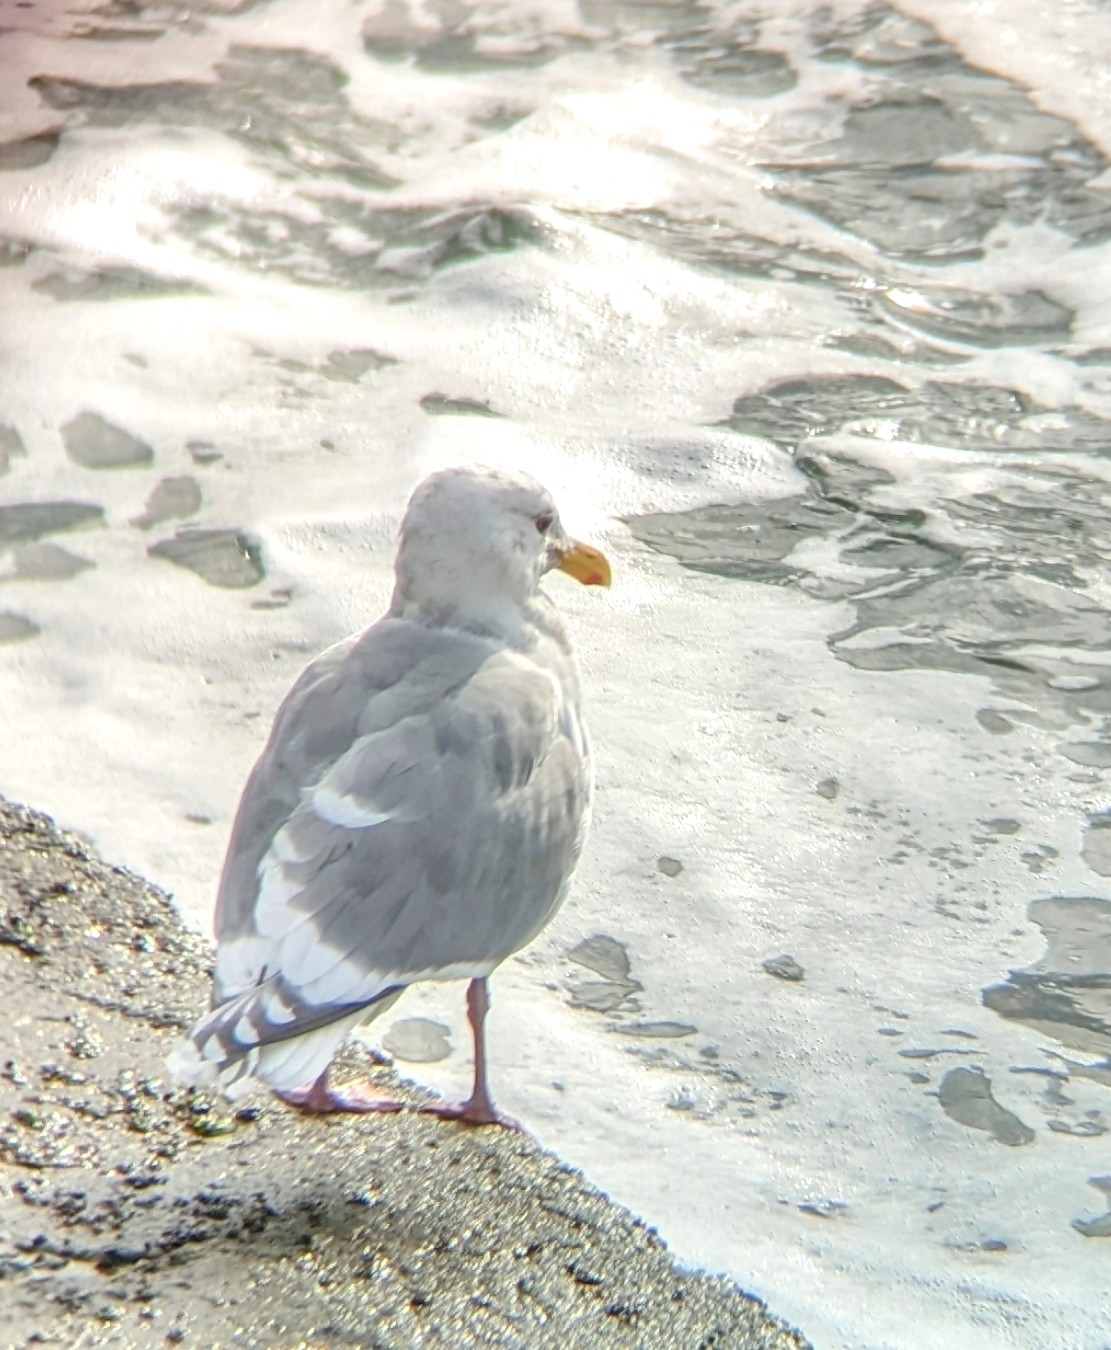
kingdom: Animalia
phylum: Chordata
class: Aves
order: Charadriiformes
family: Laridae
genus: Larus
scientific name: Larus
